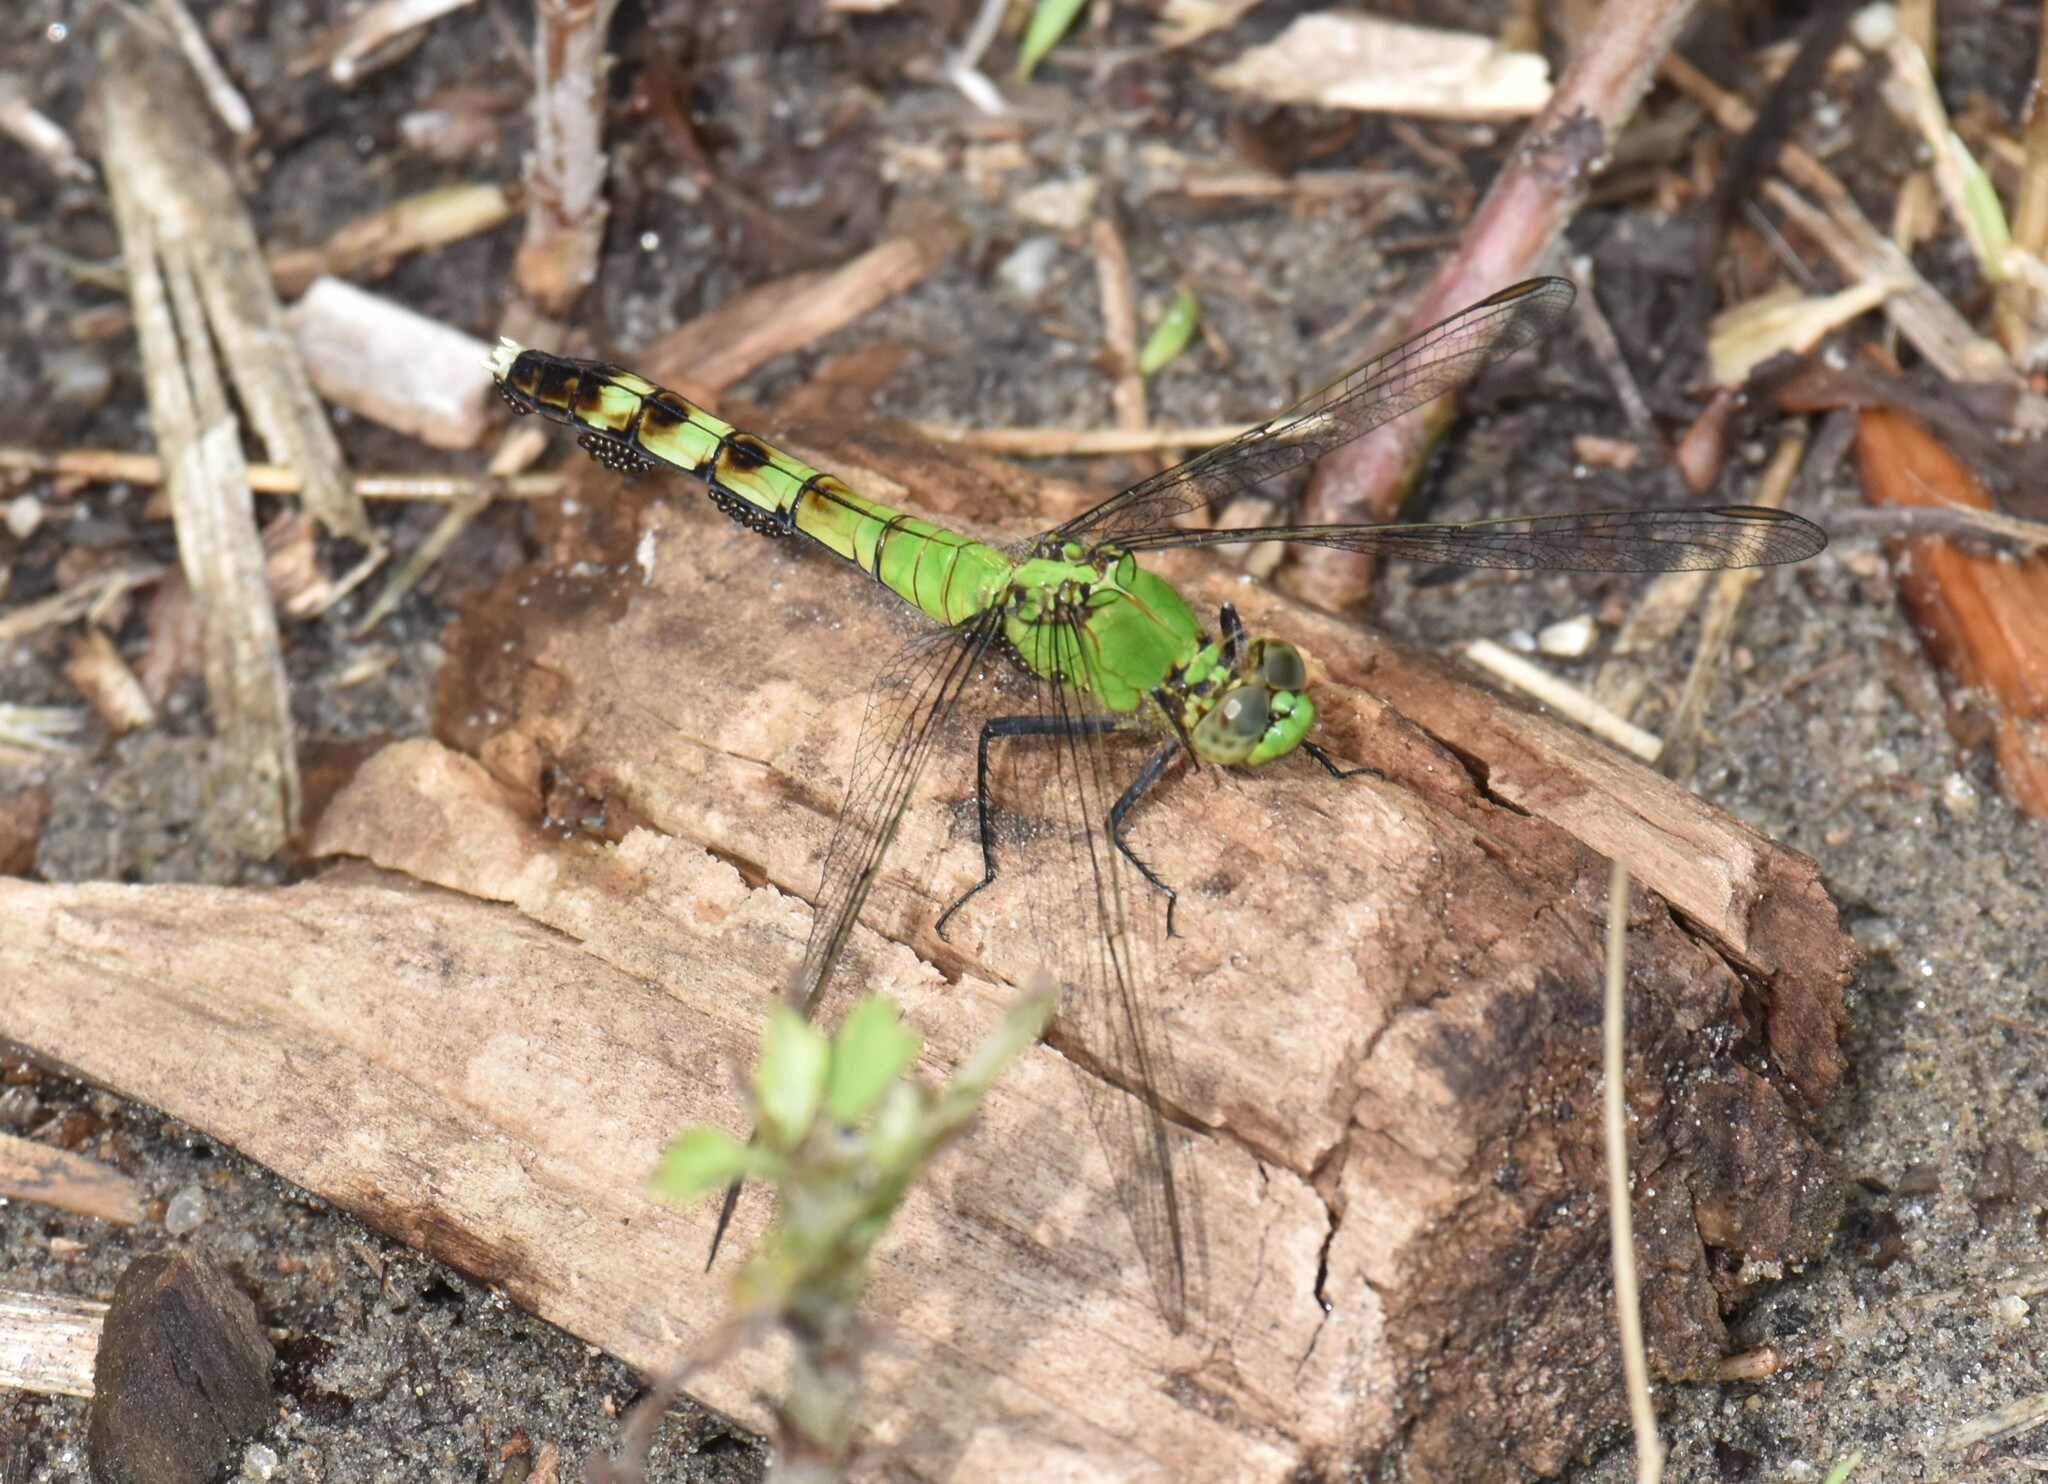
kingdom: Animalia
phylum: Arthropoda
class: Insecta
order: Odonata
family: Libellulidae
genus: Erythemis
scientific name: Erythemis simplicicollis
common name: Eastern pondhawk
